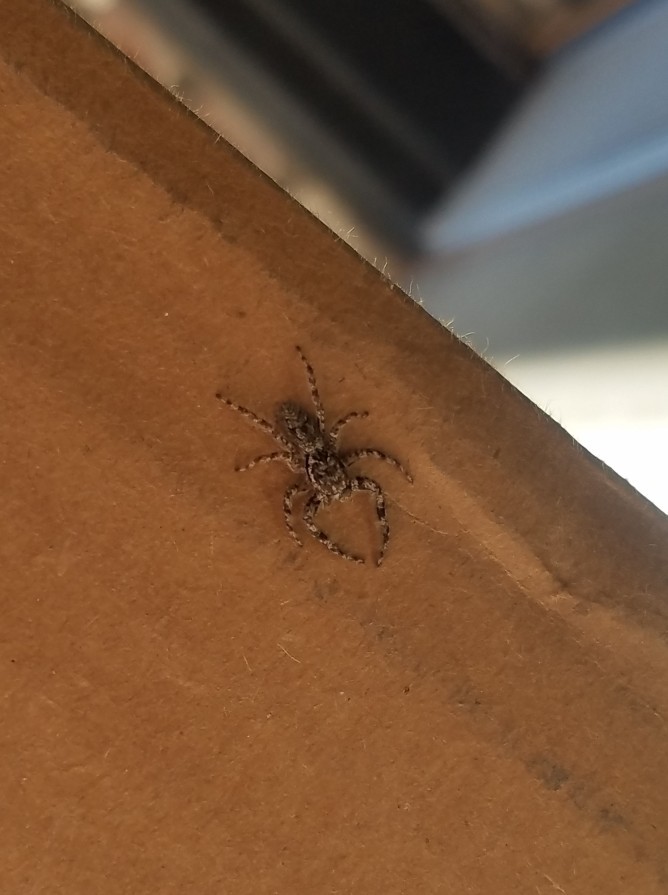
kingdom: Animalia
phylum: Arthropoda
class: Arachnida
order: Araneae
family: Salticidae
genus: Platycryptus
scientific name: Platycryptus undatus
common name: Tan jumping spider
